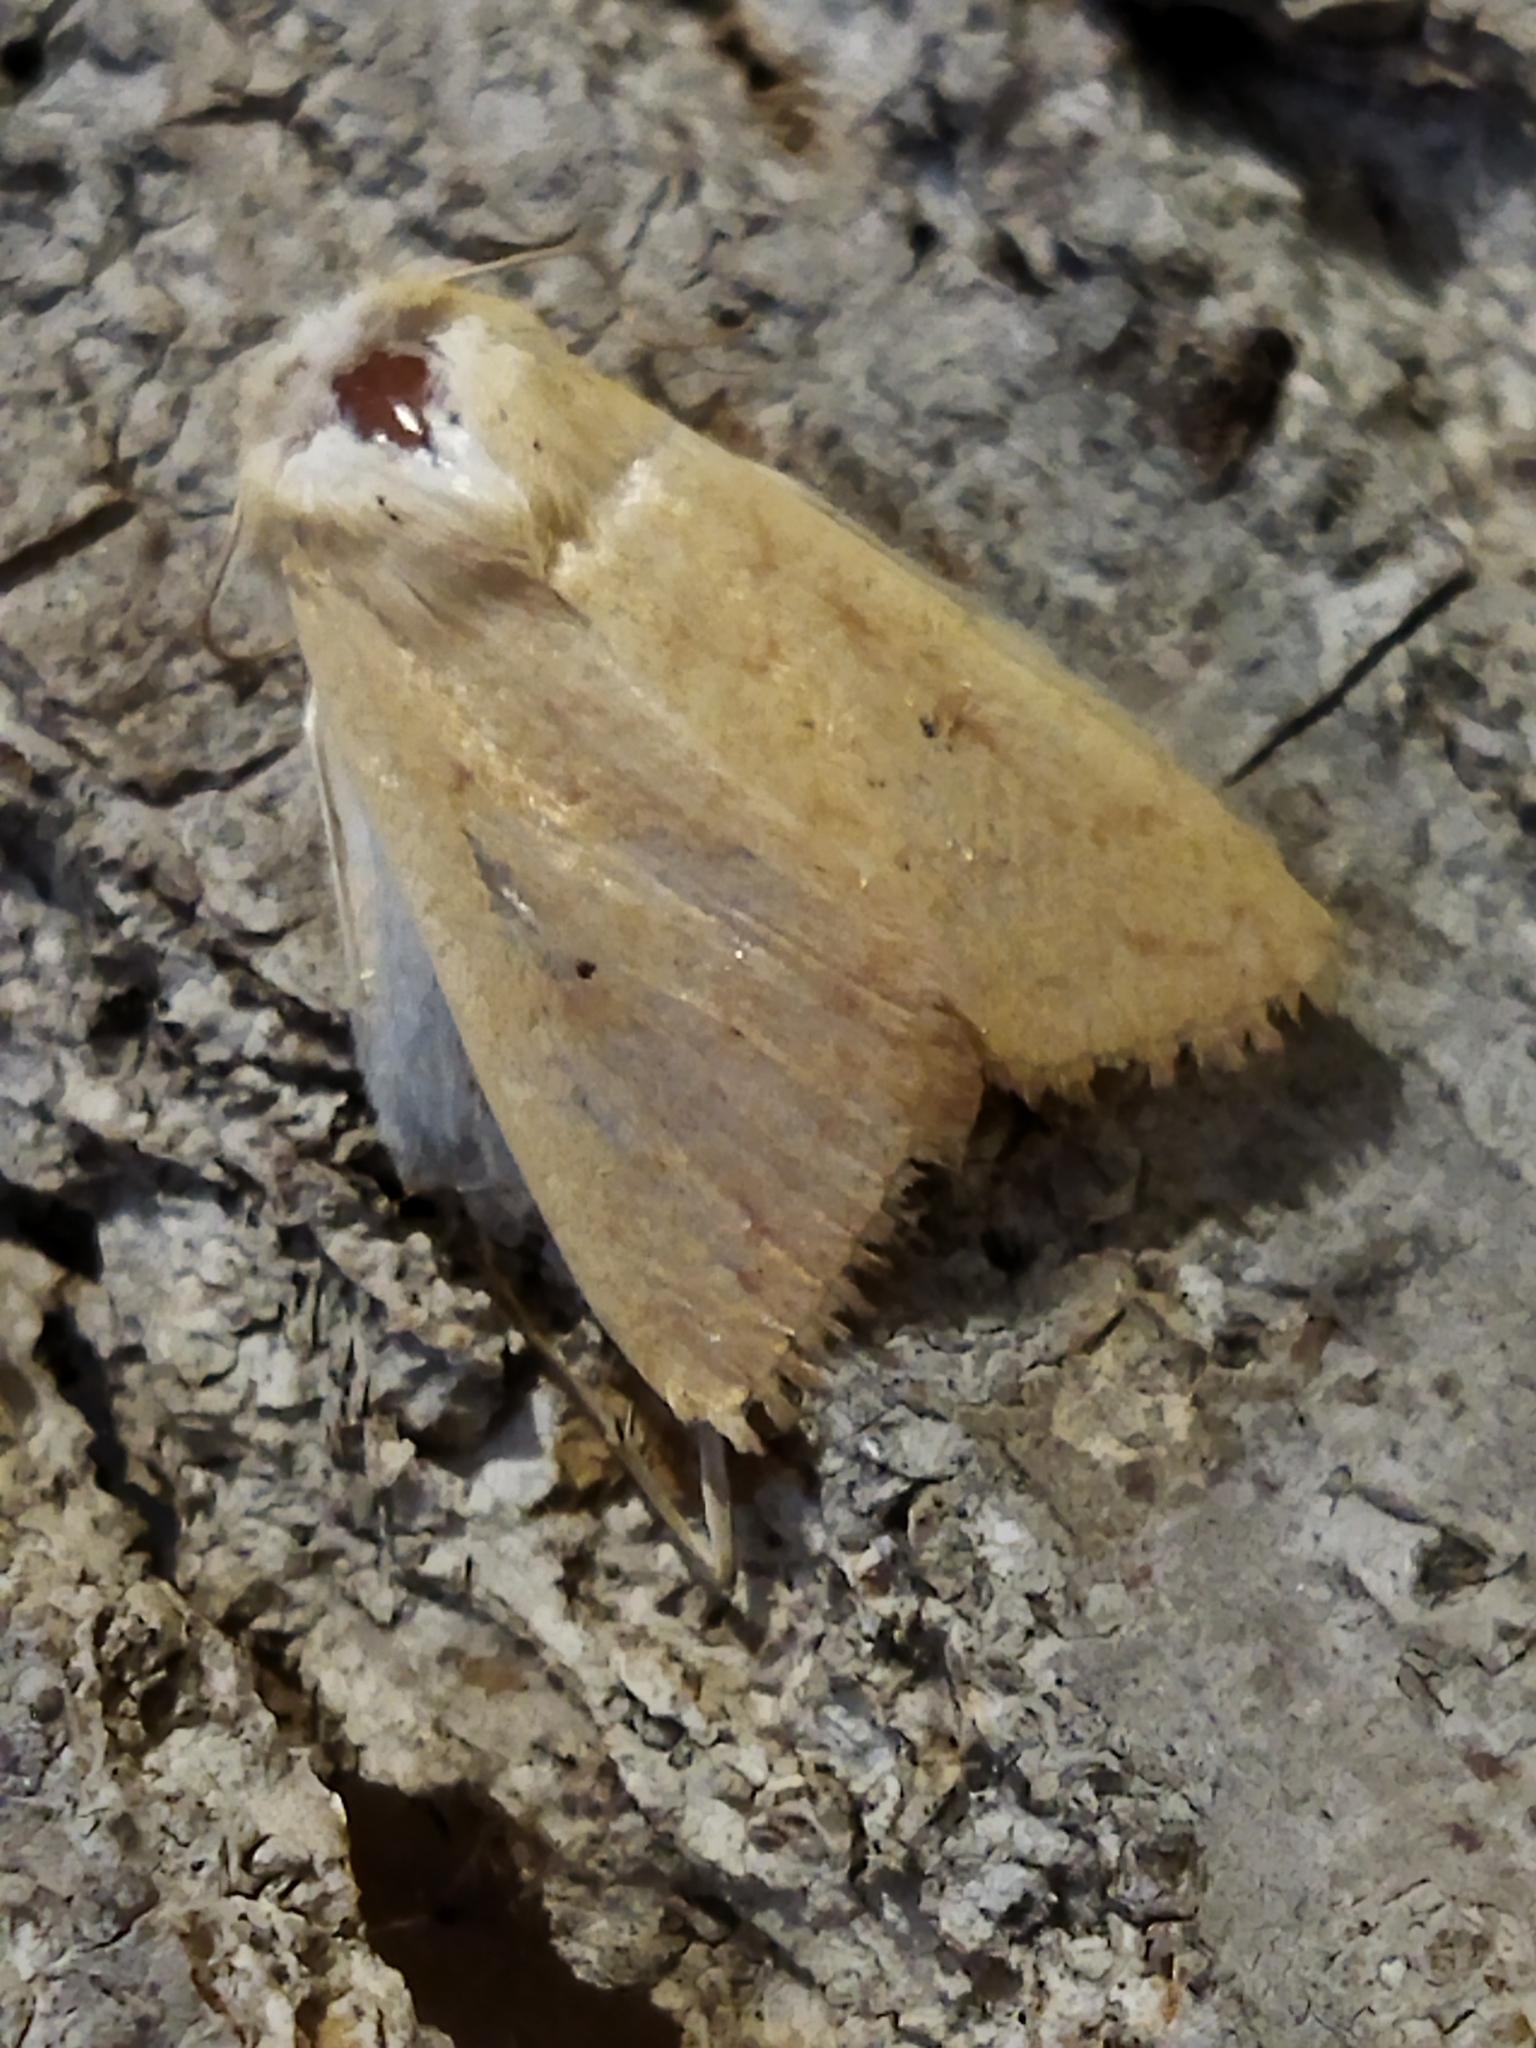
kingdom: Animalia
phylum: Arthropoda
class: Insecta
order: Lepidoptera
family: Noctuidae
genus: Mythimna
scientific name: Mythimna vitellina
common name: Delicate
